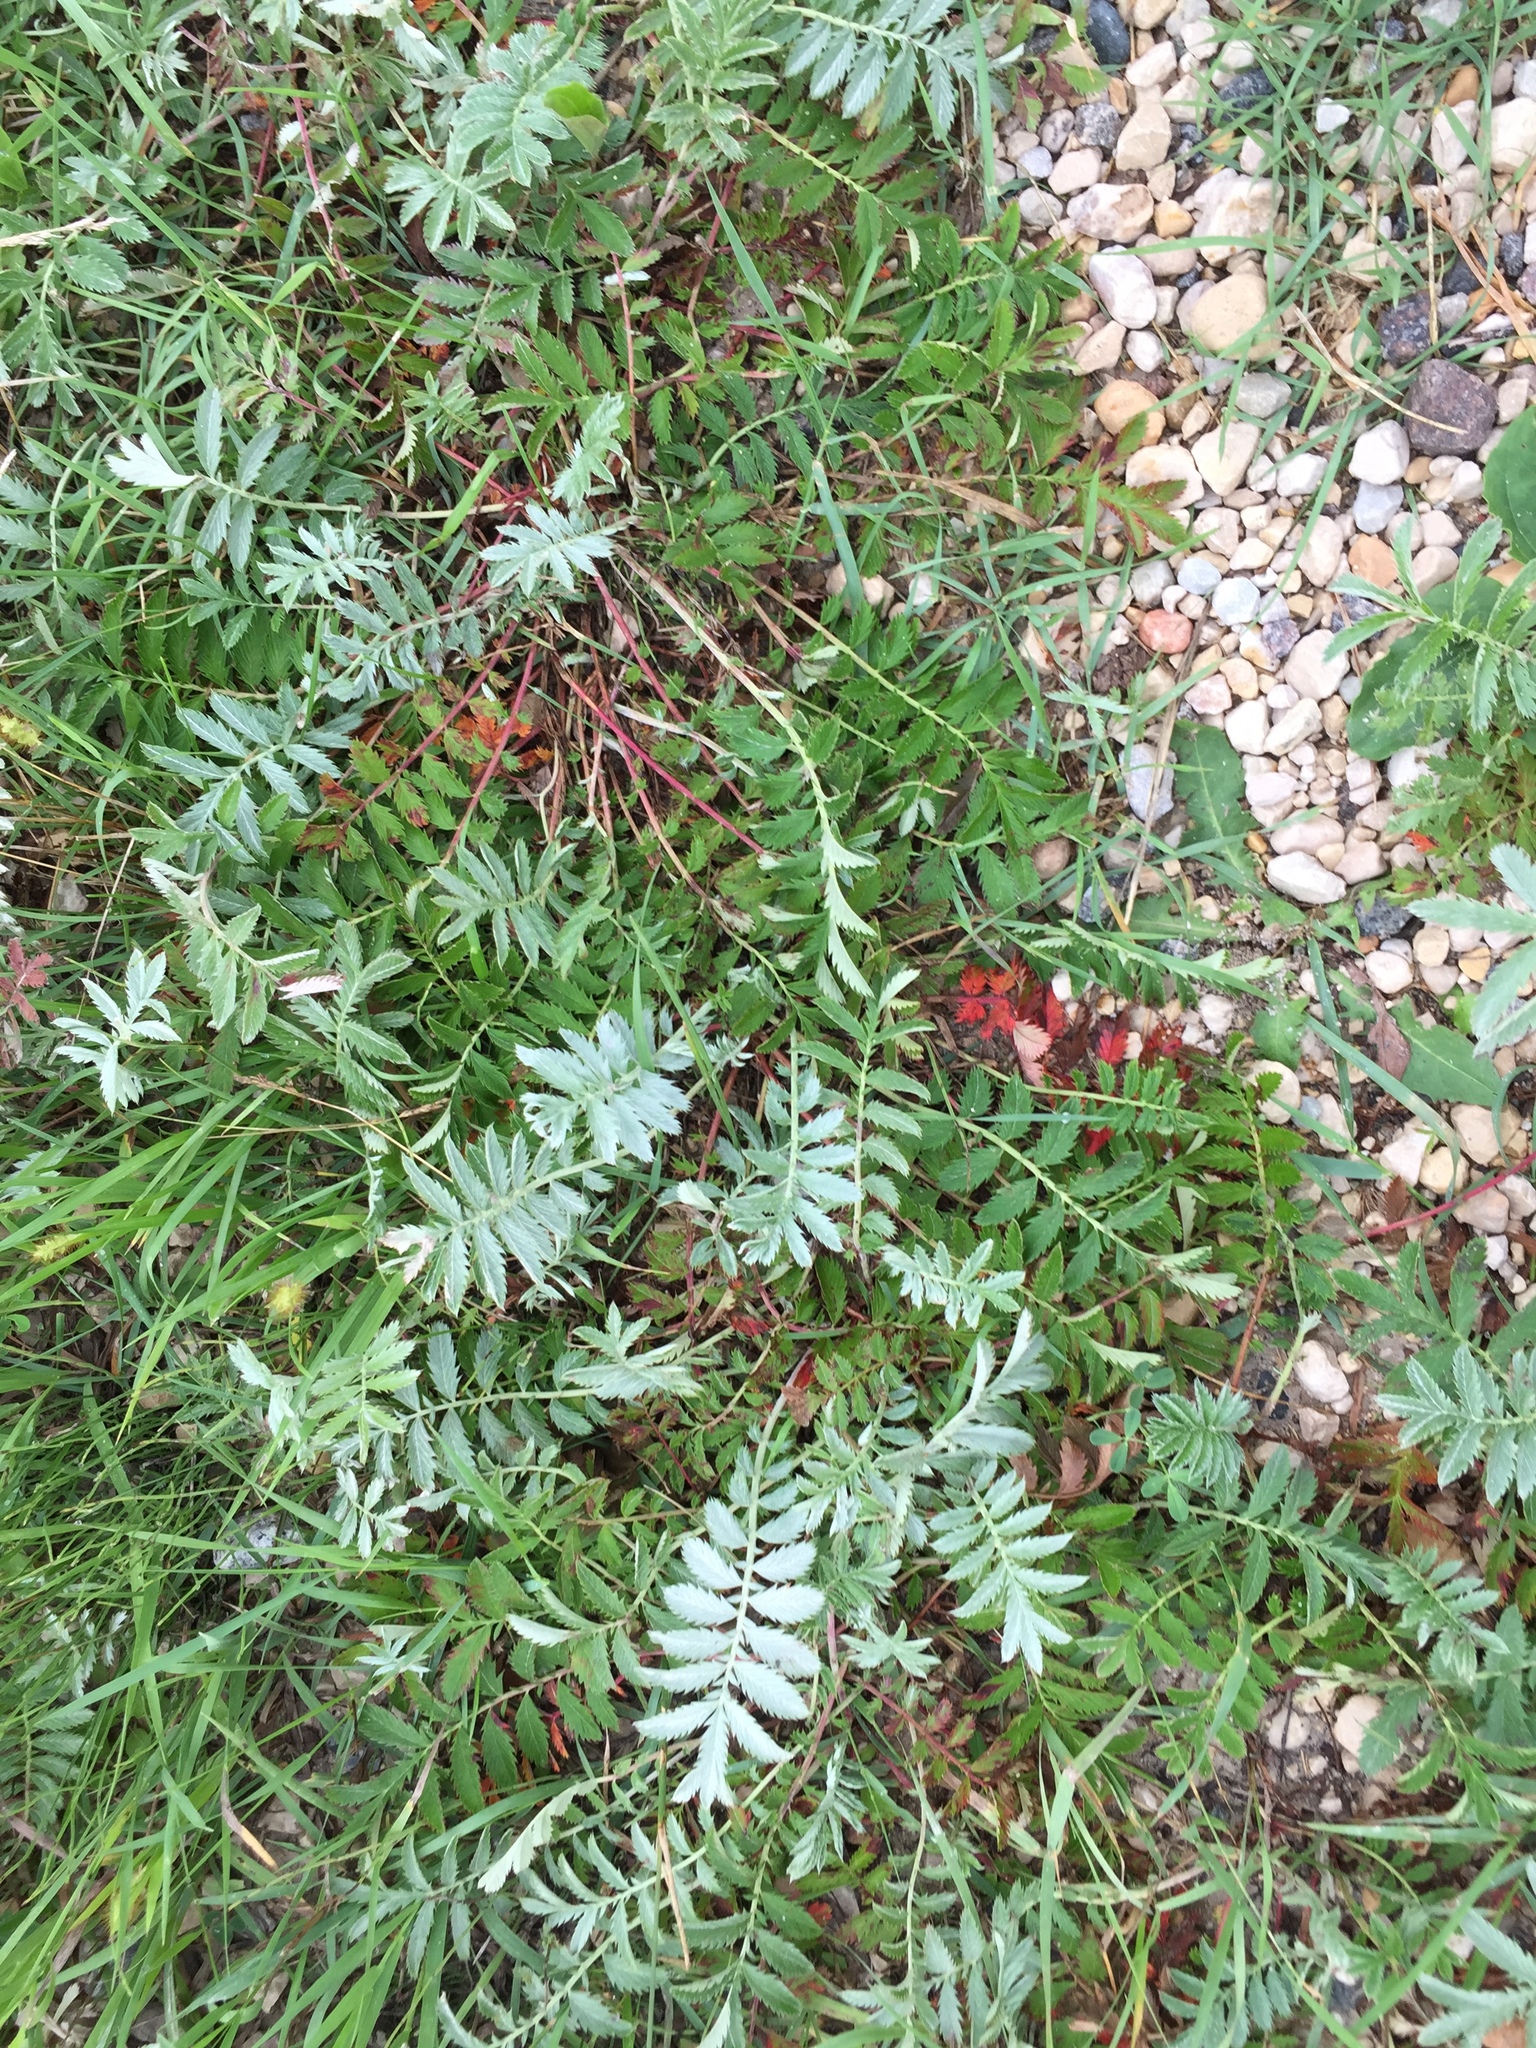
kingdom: Plantae
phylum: Tracheophyta
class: Magnoliopsida
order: Rosales
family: Rosaceae
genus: Argentina
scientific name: Argentina anserina
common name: Common silverweed
